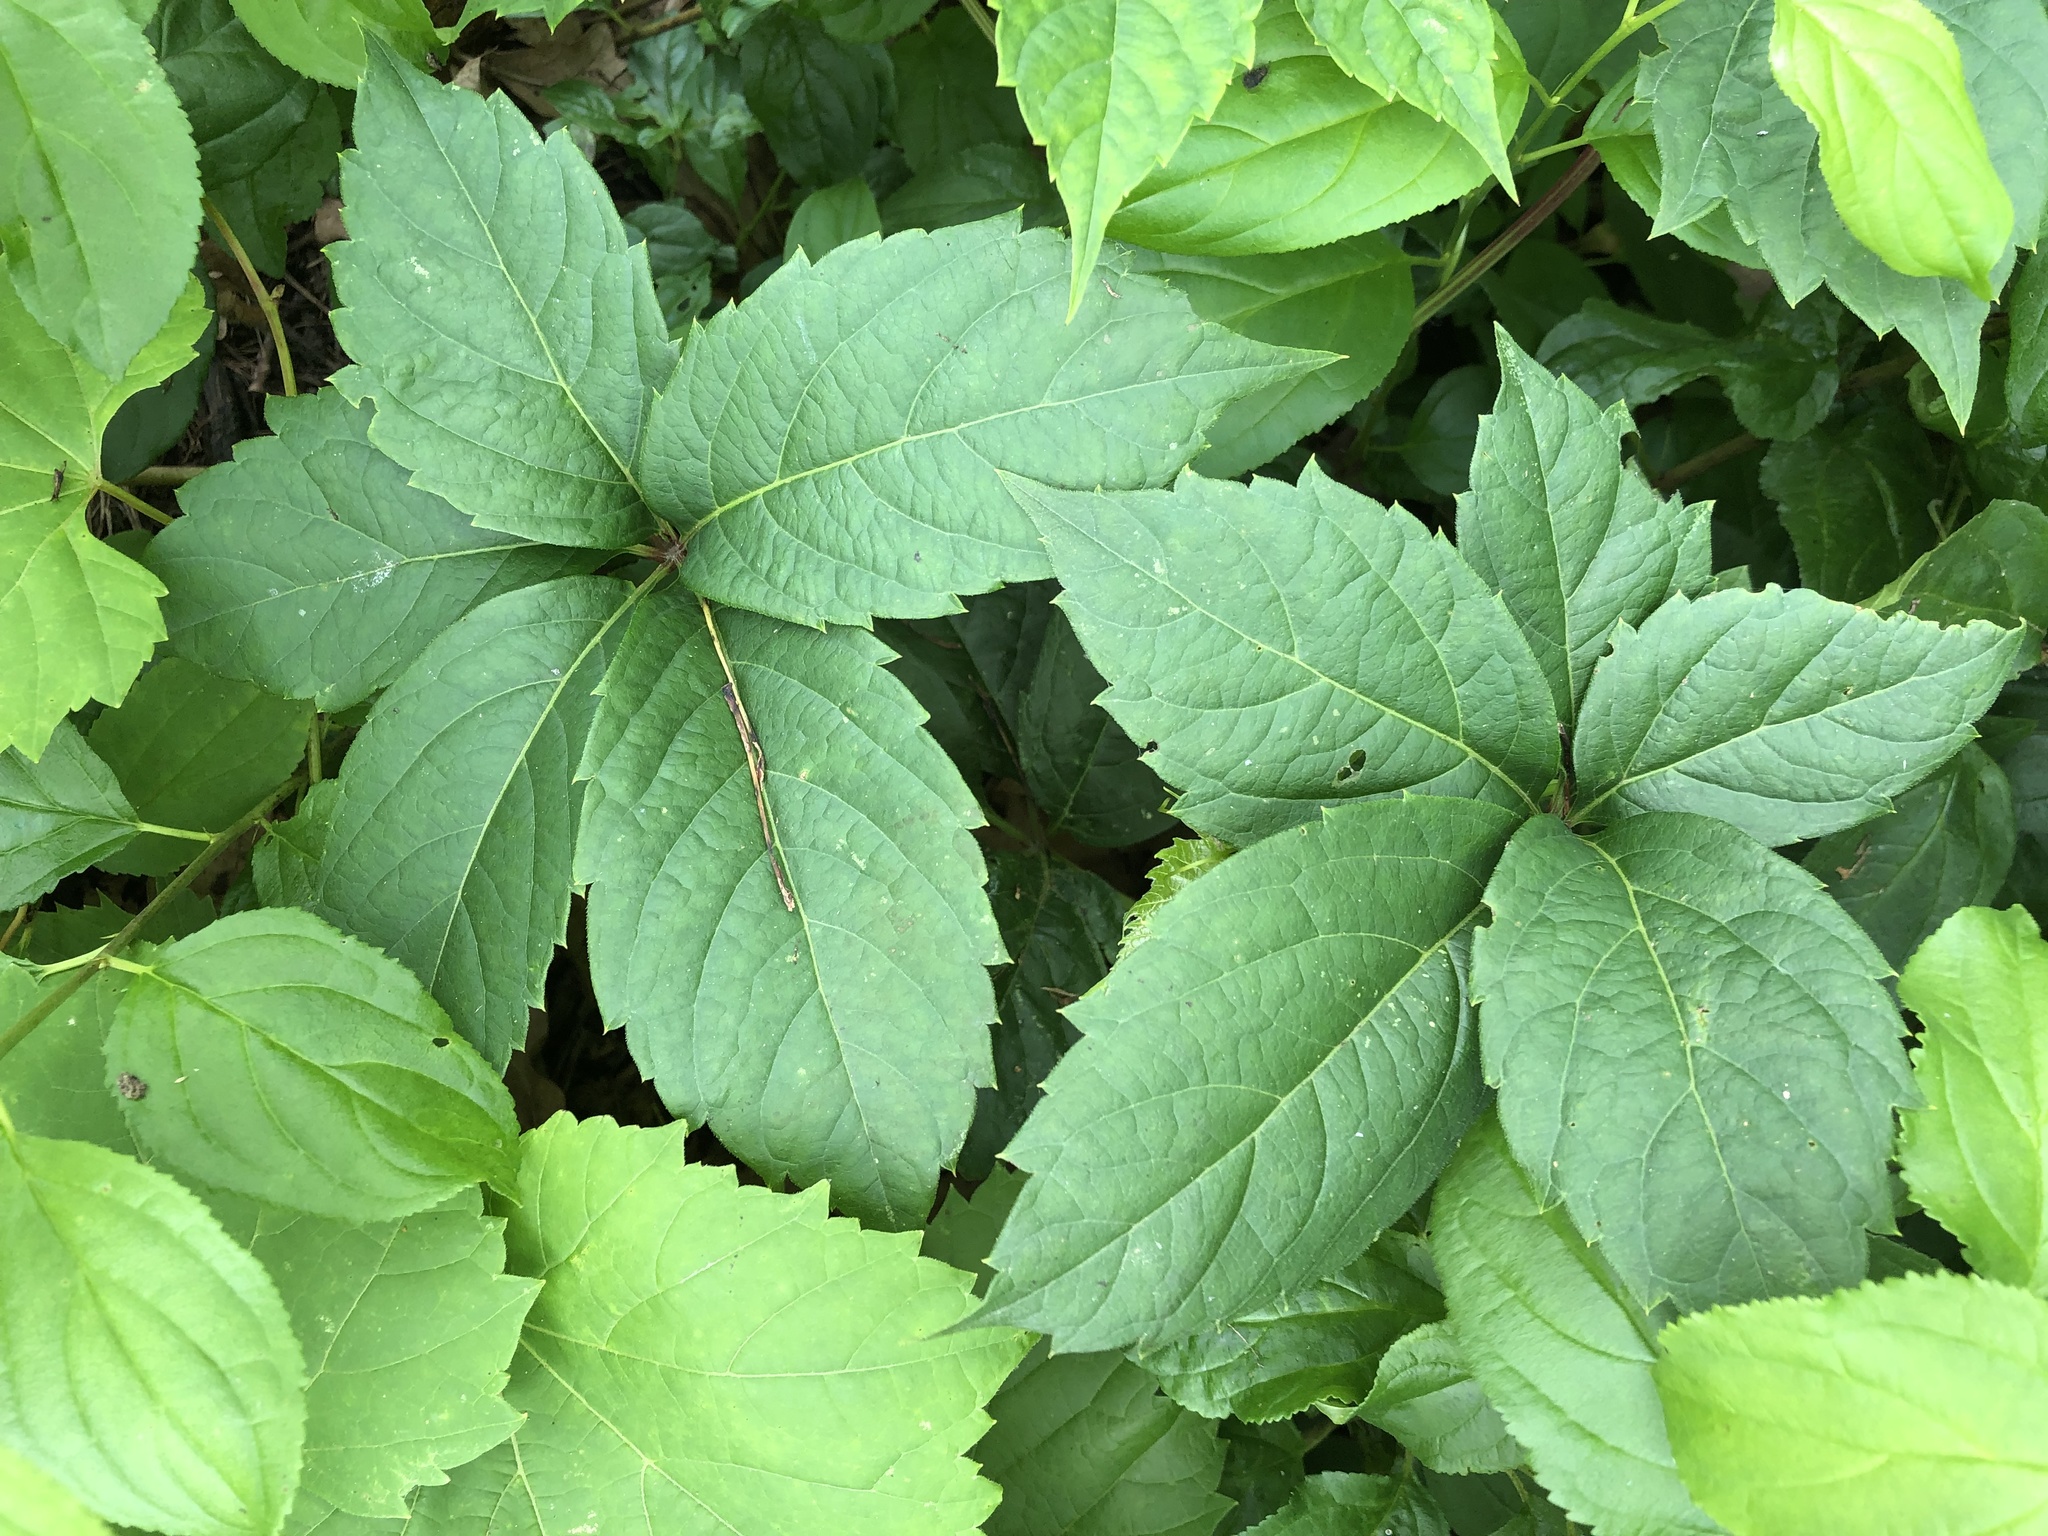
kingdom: Plantae
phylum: Tracheophyta
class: Magnoliopsida
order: Vitales
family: Vitaceae
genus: Parthenocissus
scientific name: Parthenocissus inserta
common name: False virginia-creeper
